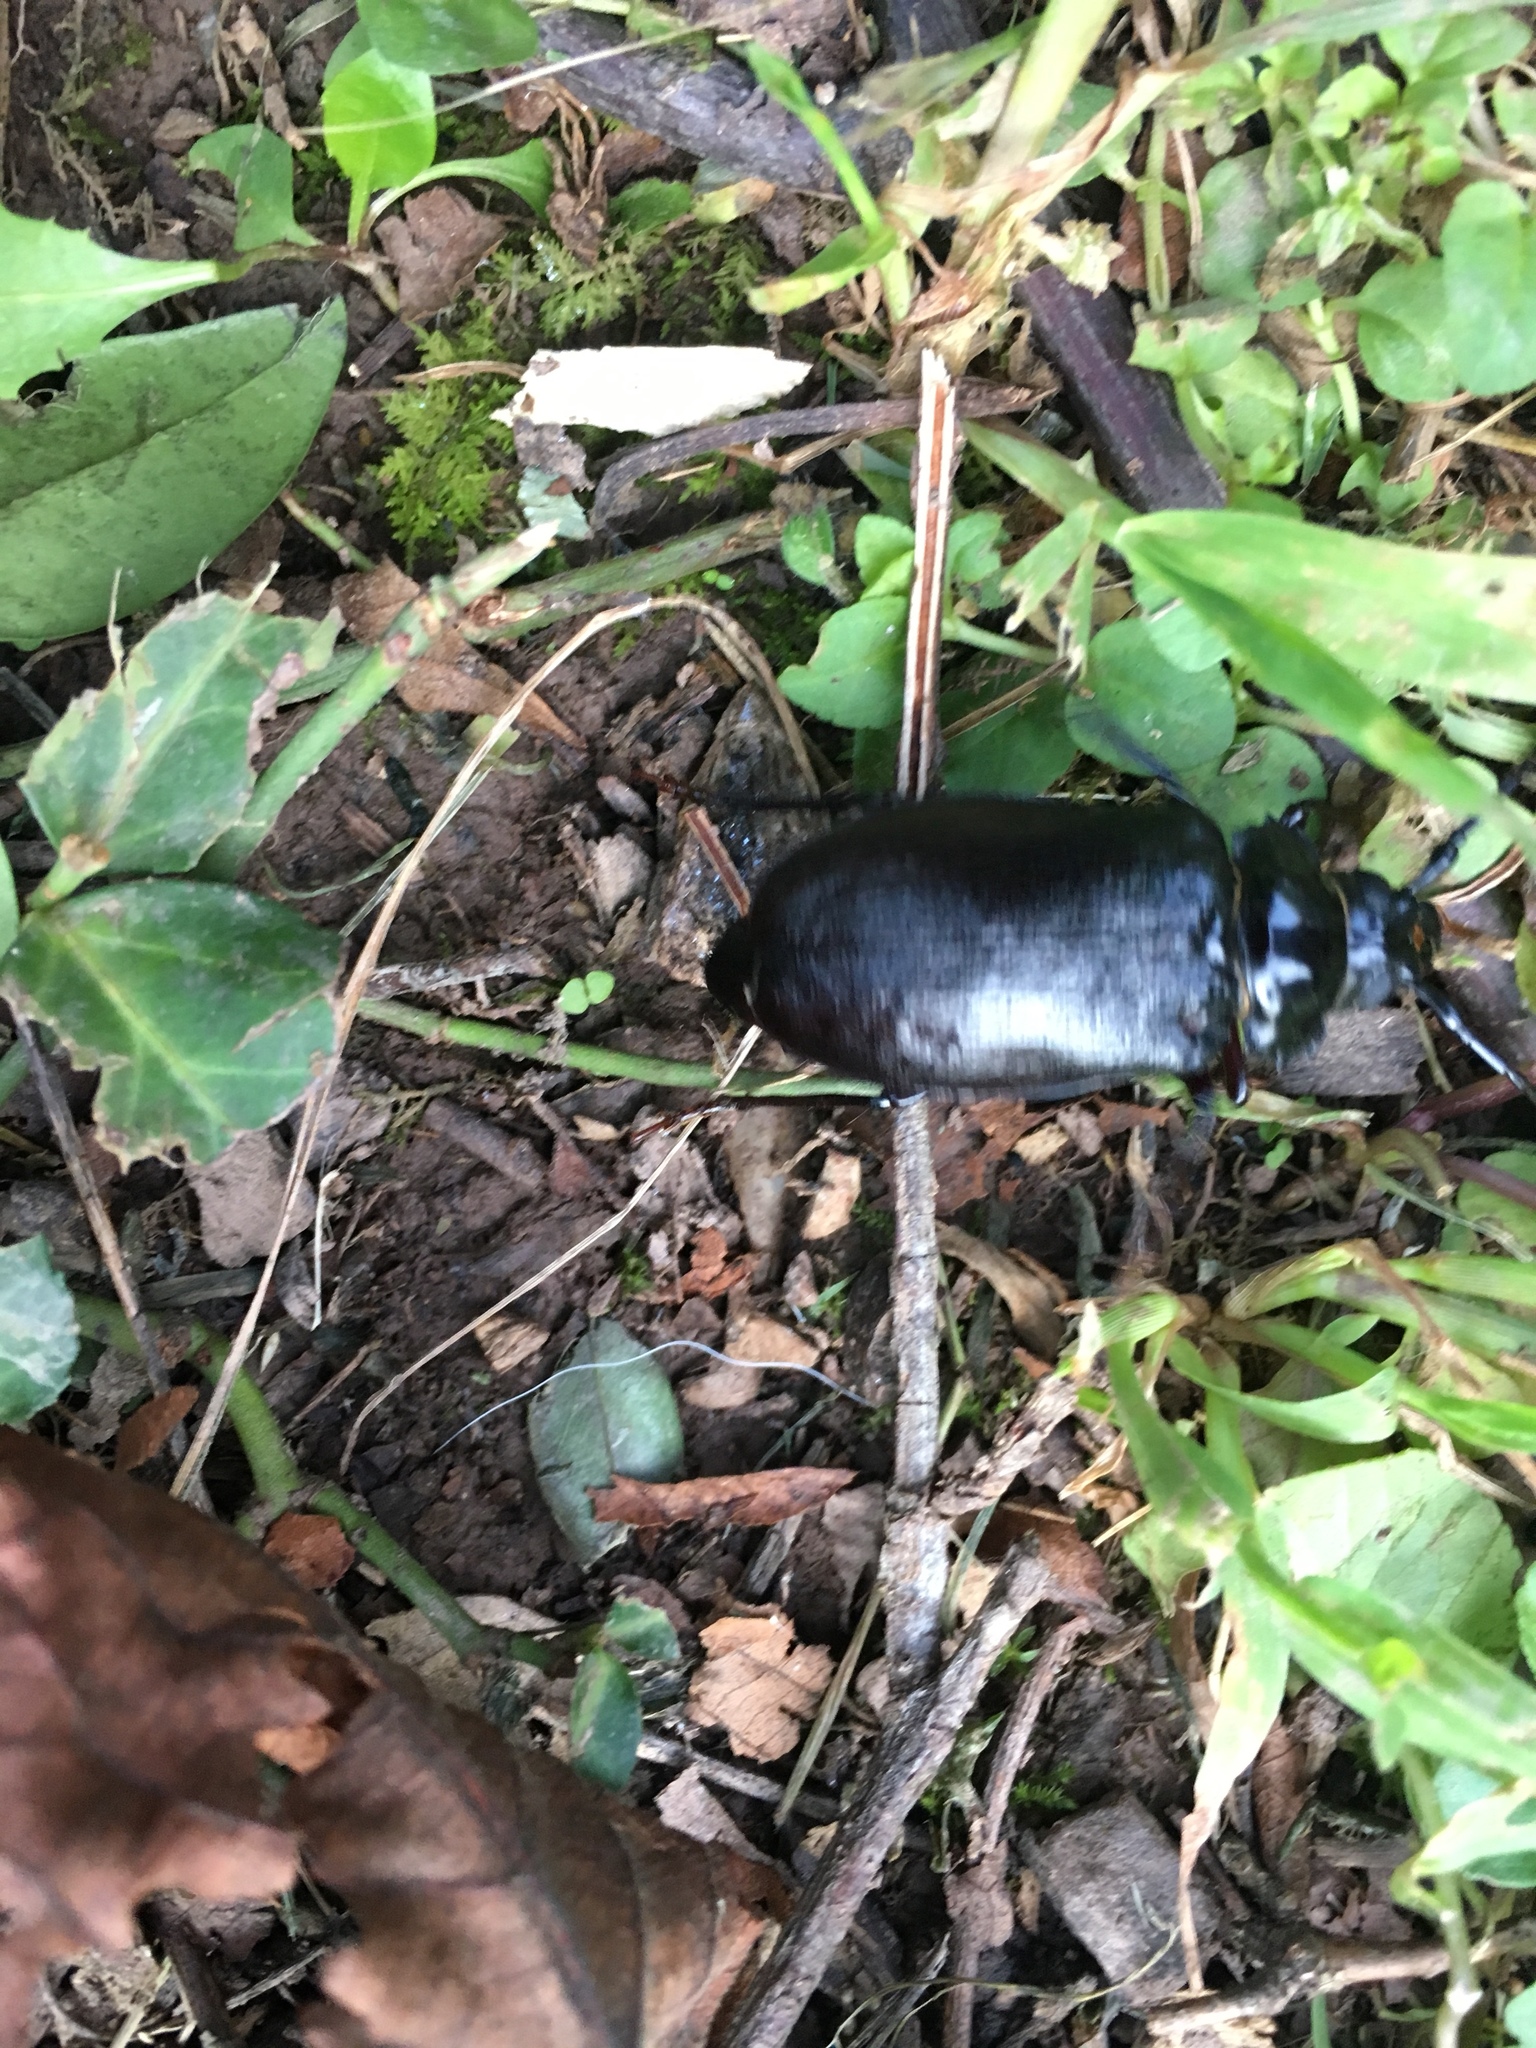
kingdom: Animalia
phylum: Arthropoda
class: Insecta
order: Coleoptera
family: Cerambycidae
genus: Prionus
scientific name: Prionus laticollis
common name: Broad necked prionus
